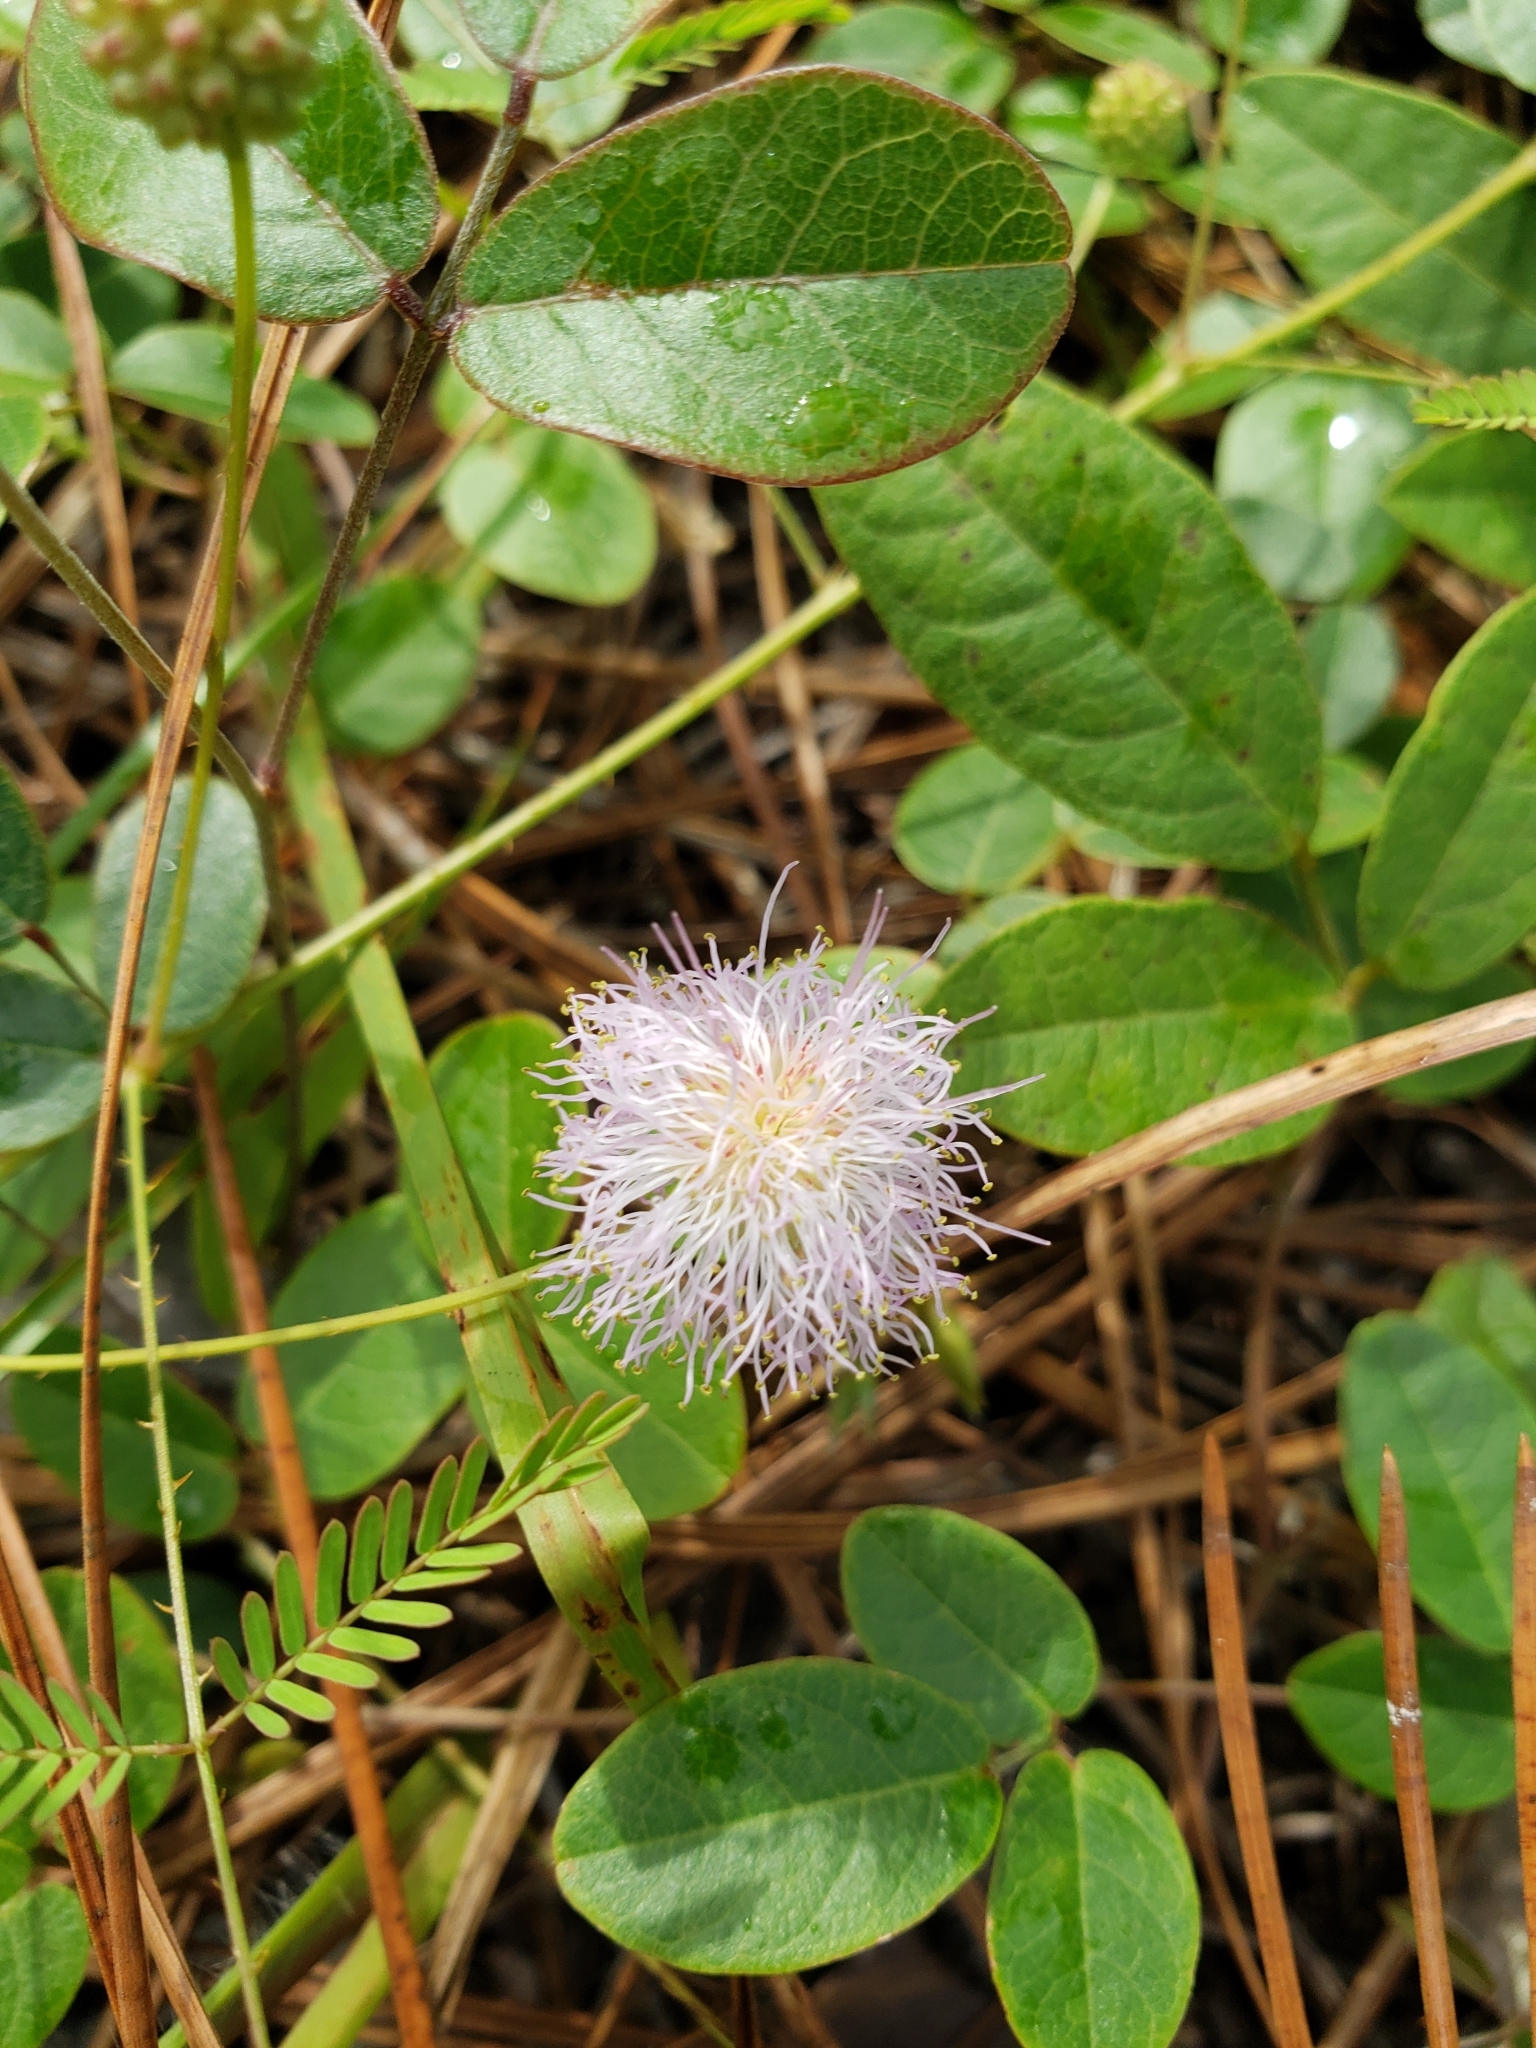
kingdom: Plantae
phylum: Tracheophyta
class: Magnoliopsida
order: Fabales
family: Fabaceae
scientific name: Fabaceae
